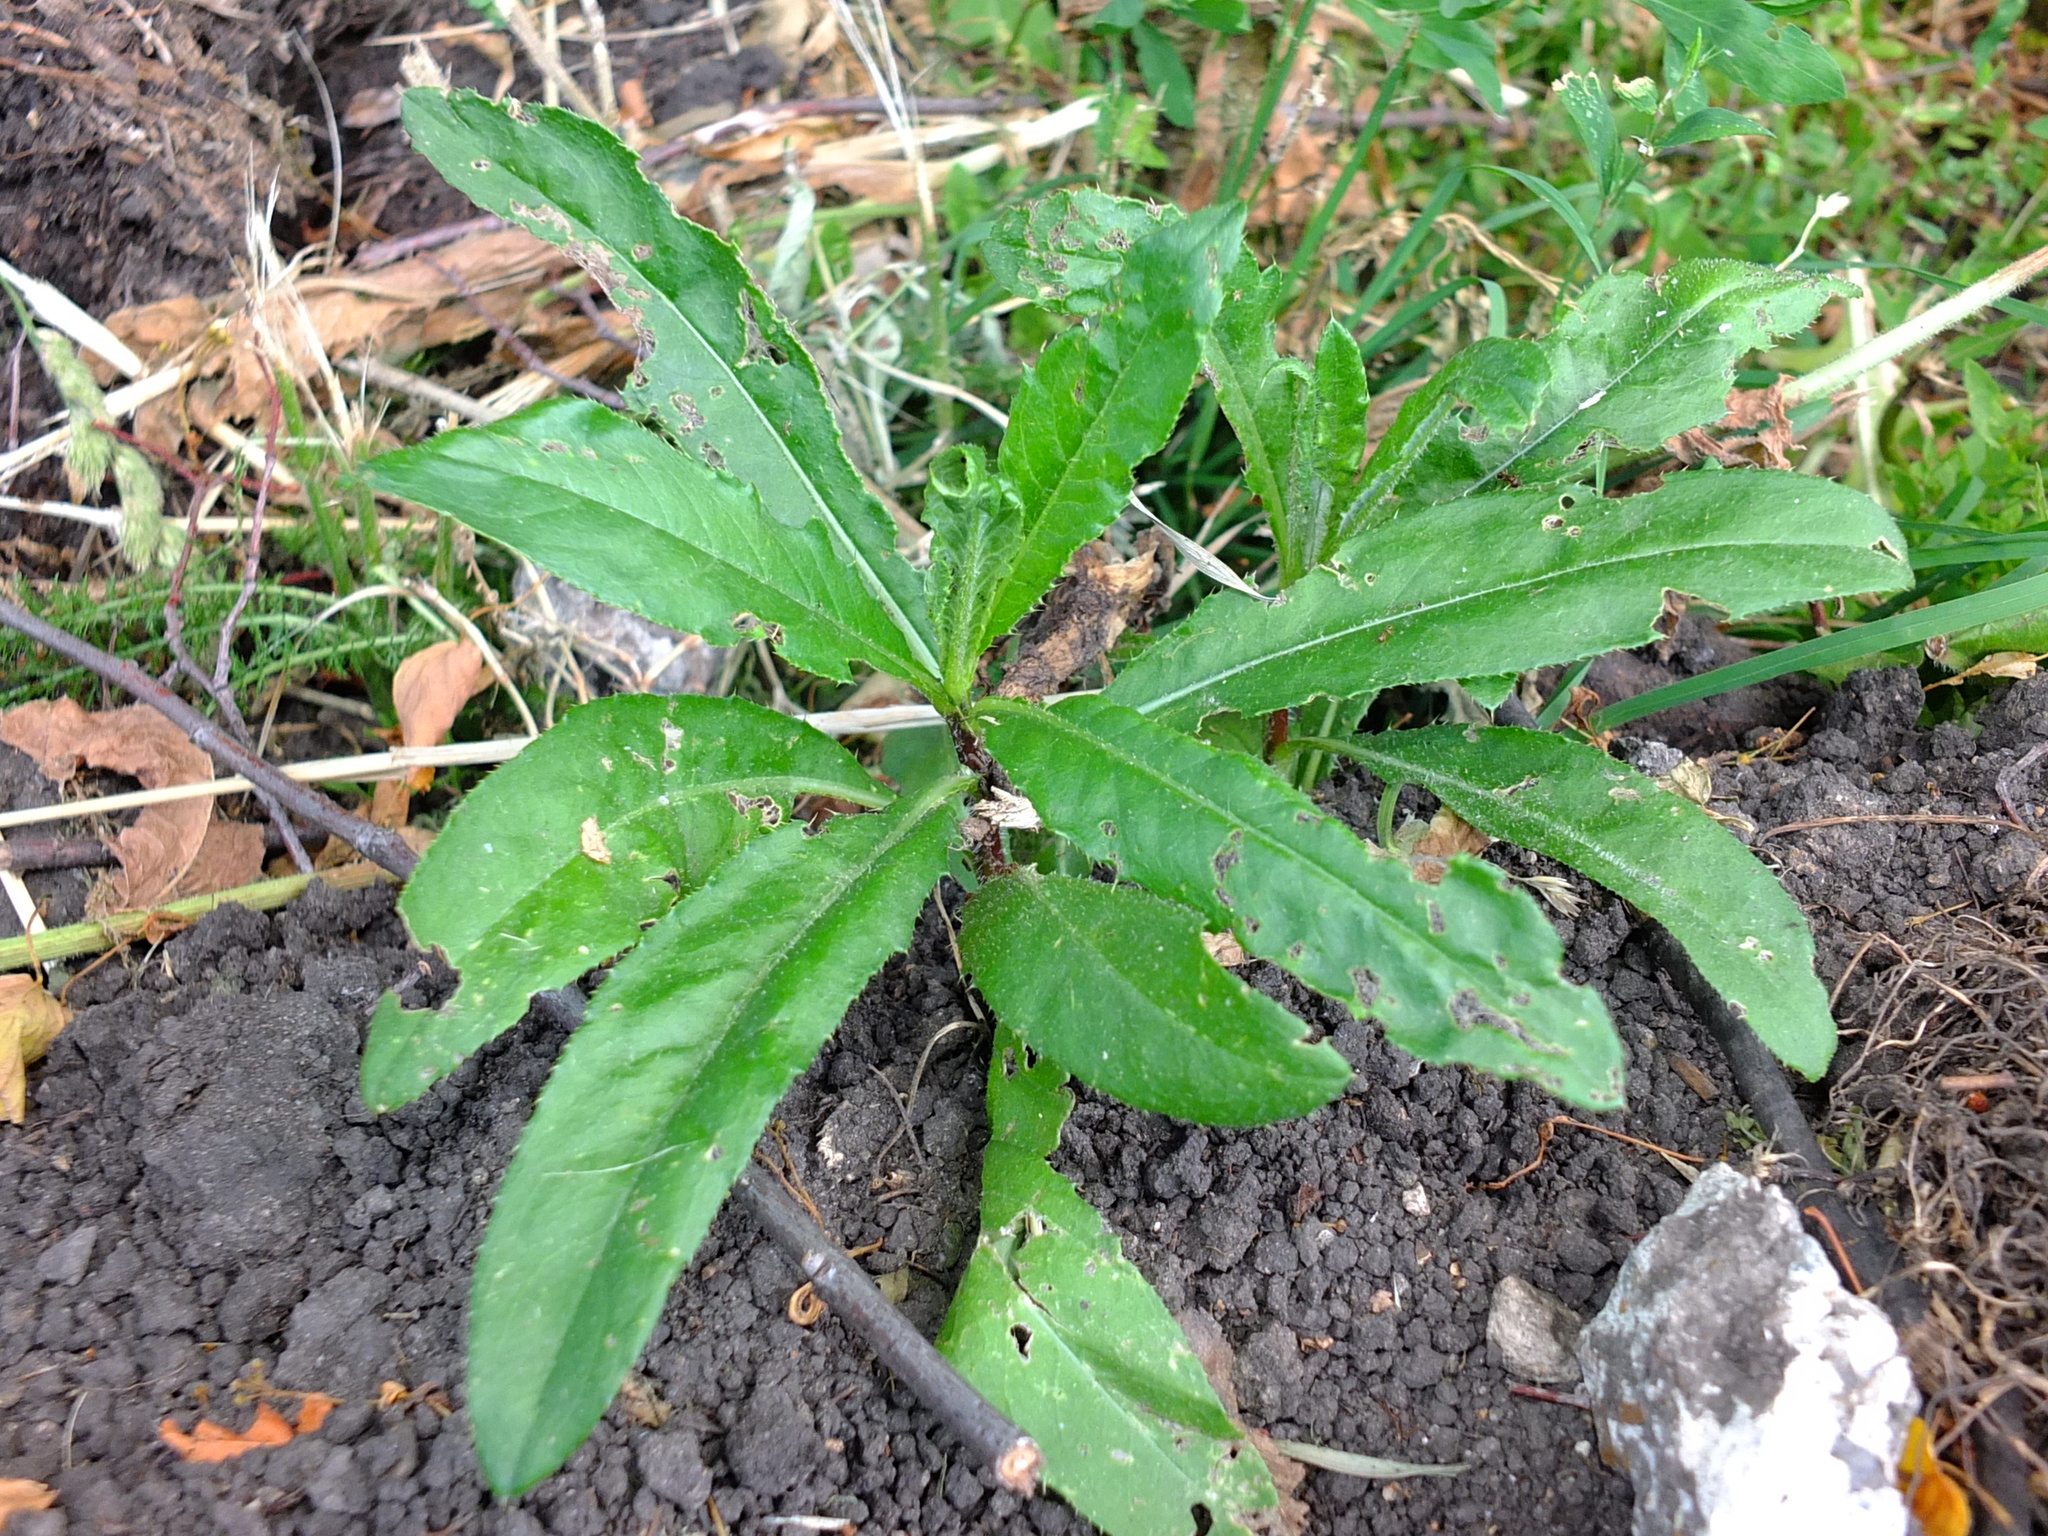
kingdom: Plantae
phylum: Tracheophyta
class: Magnoliopsida
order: Asterales
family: Asteraceae
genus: Cirsium
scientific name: Cirsium arvense
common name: Creeping thistle
